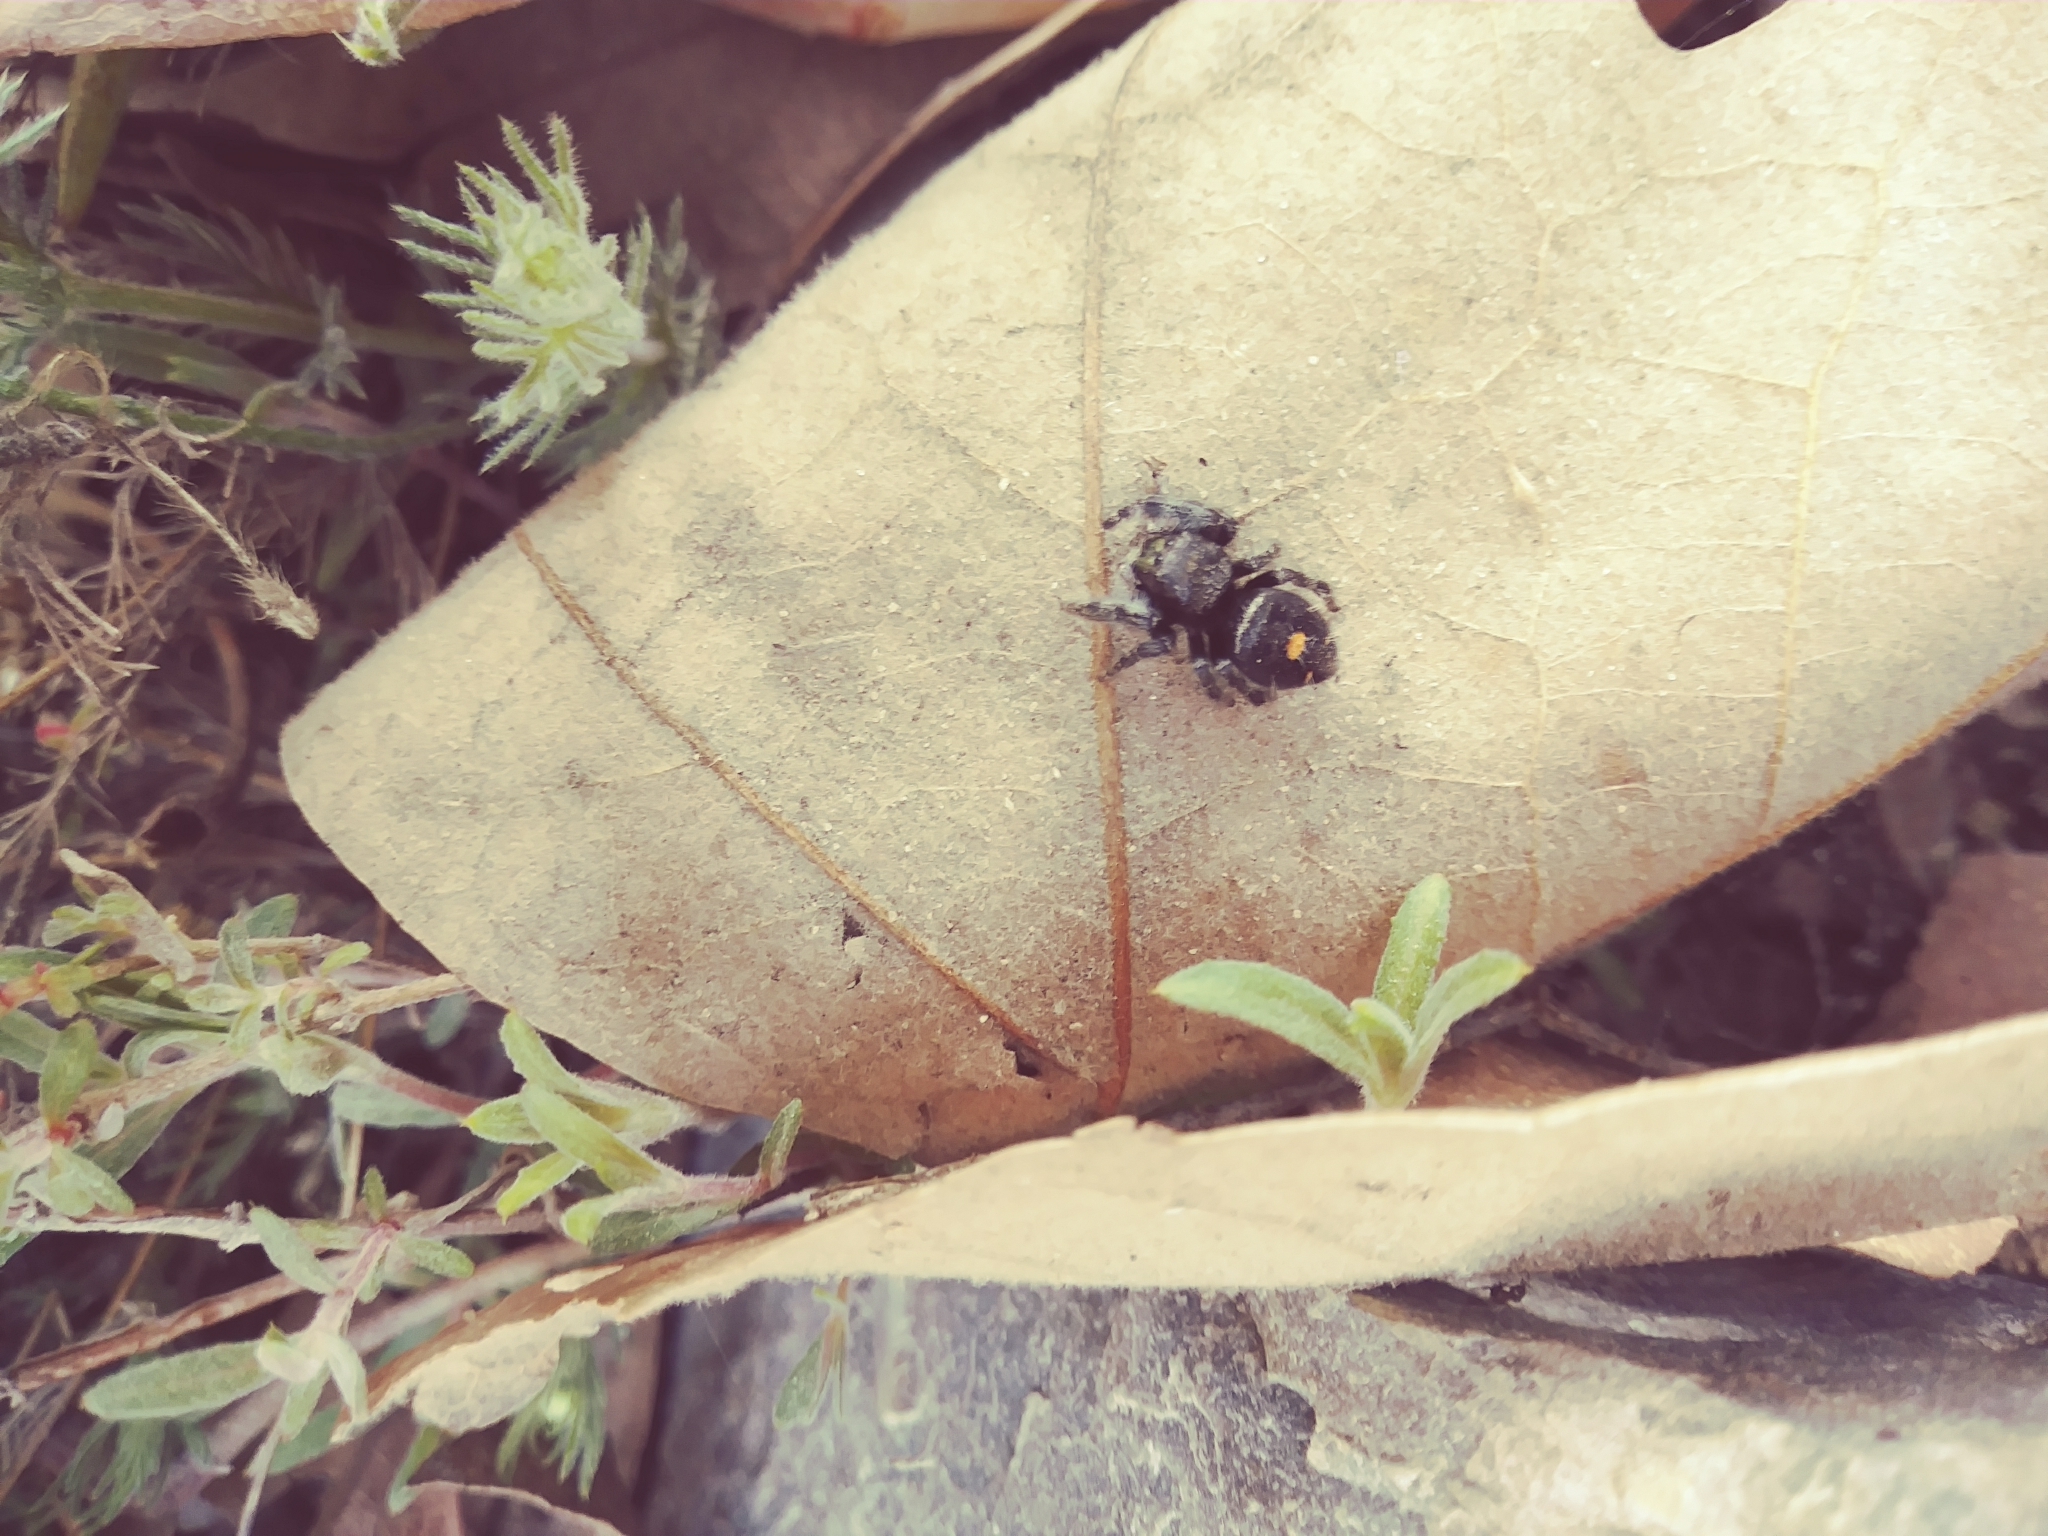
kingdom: Animalia
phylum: Arthropoda
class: Arachnida
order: Araneae
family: Salticidae
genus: Phidippus
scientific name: Phidippus audax
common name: Bold jumper
